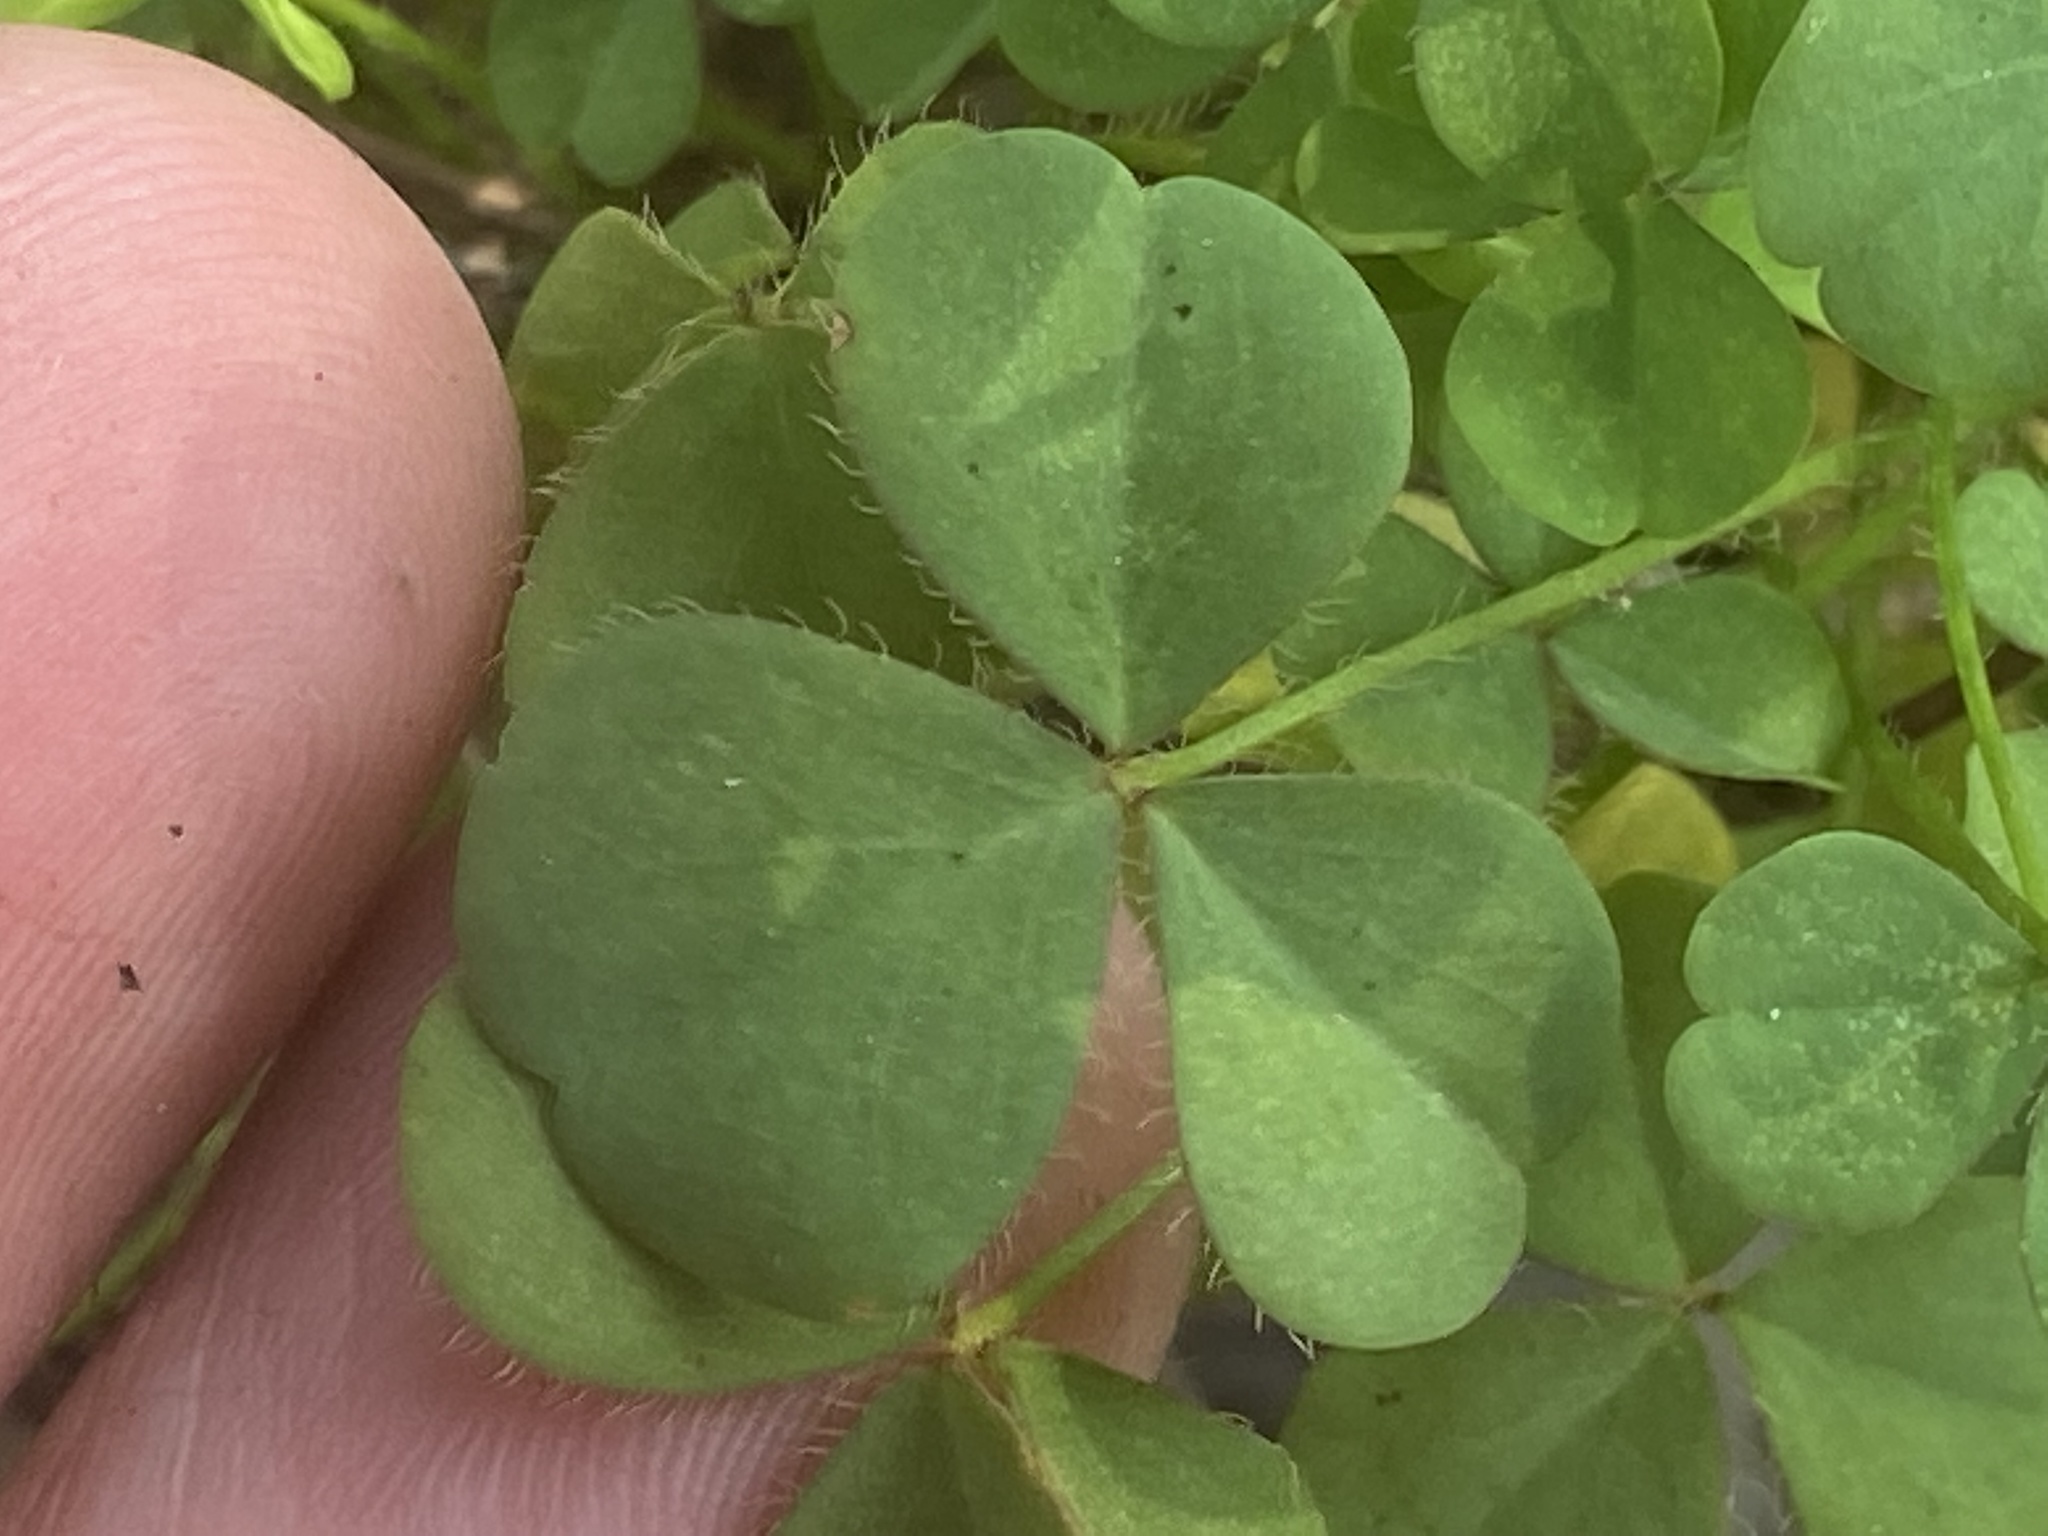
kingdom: Plantae
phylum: Tracheophyta
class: Magnoliopsida
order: Oxalidales
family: Oxalidaceae
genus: Oxalis
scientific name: Oxalis macrantha
